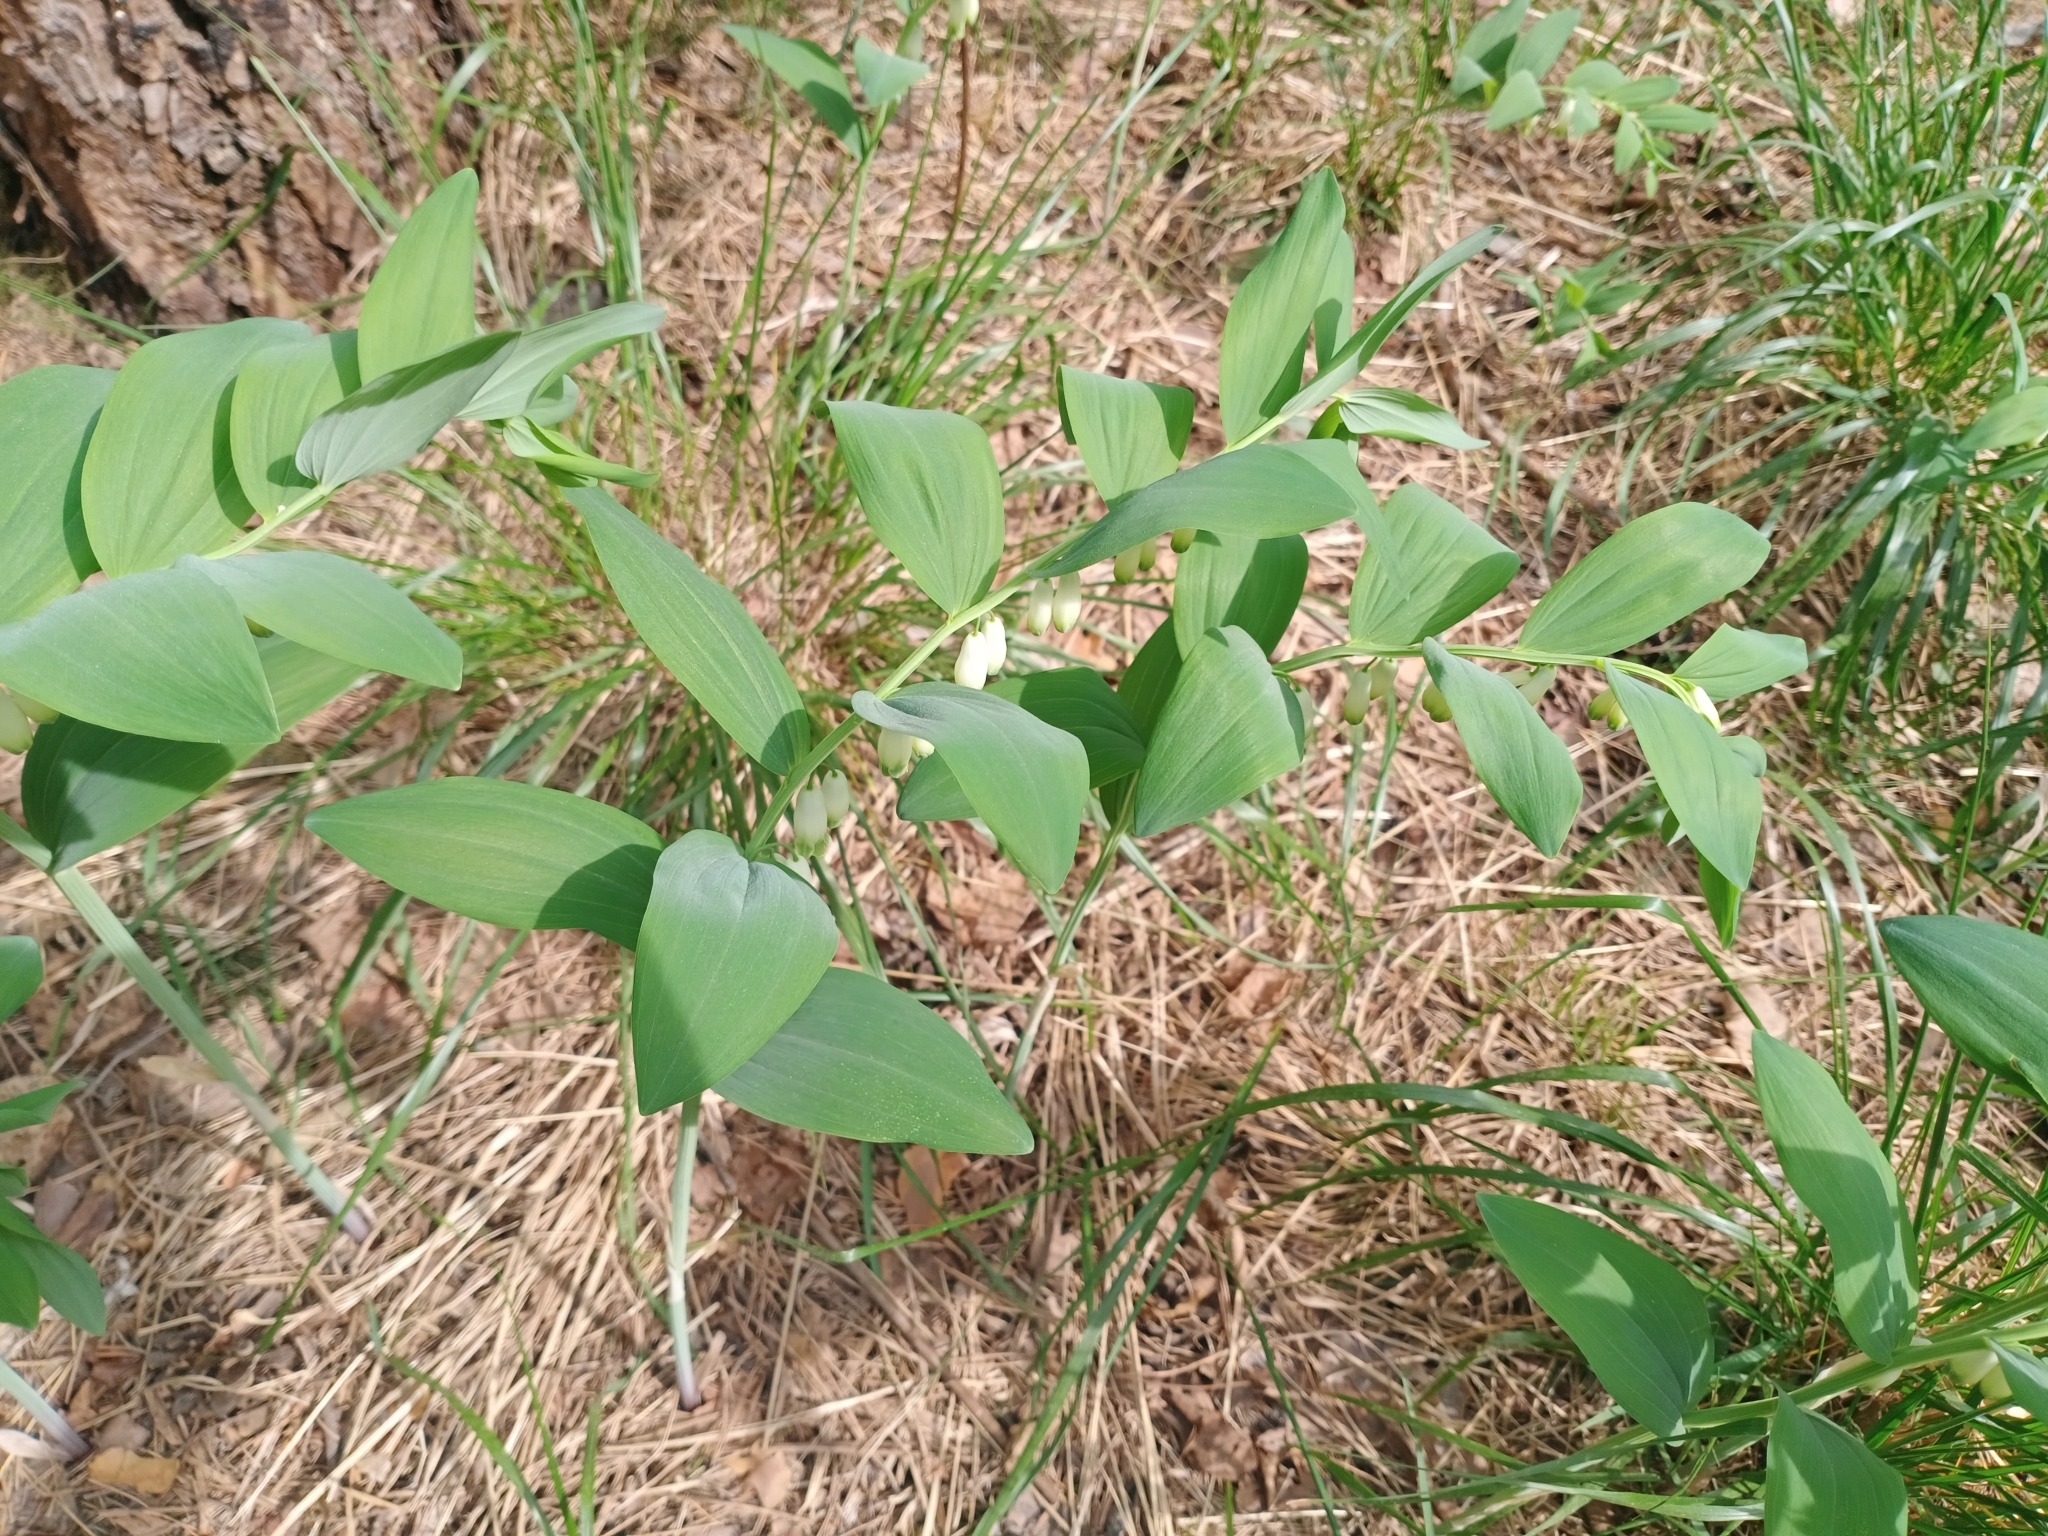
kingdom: Plantae
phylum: Tracheophyta
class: Liliopsida
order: Asparagales
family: Asparagaceae
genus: Polygonatum
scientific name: Polygonatum odoratum
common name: Angular solomon's-seal
